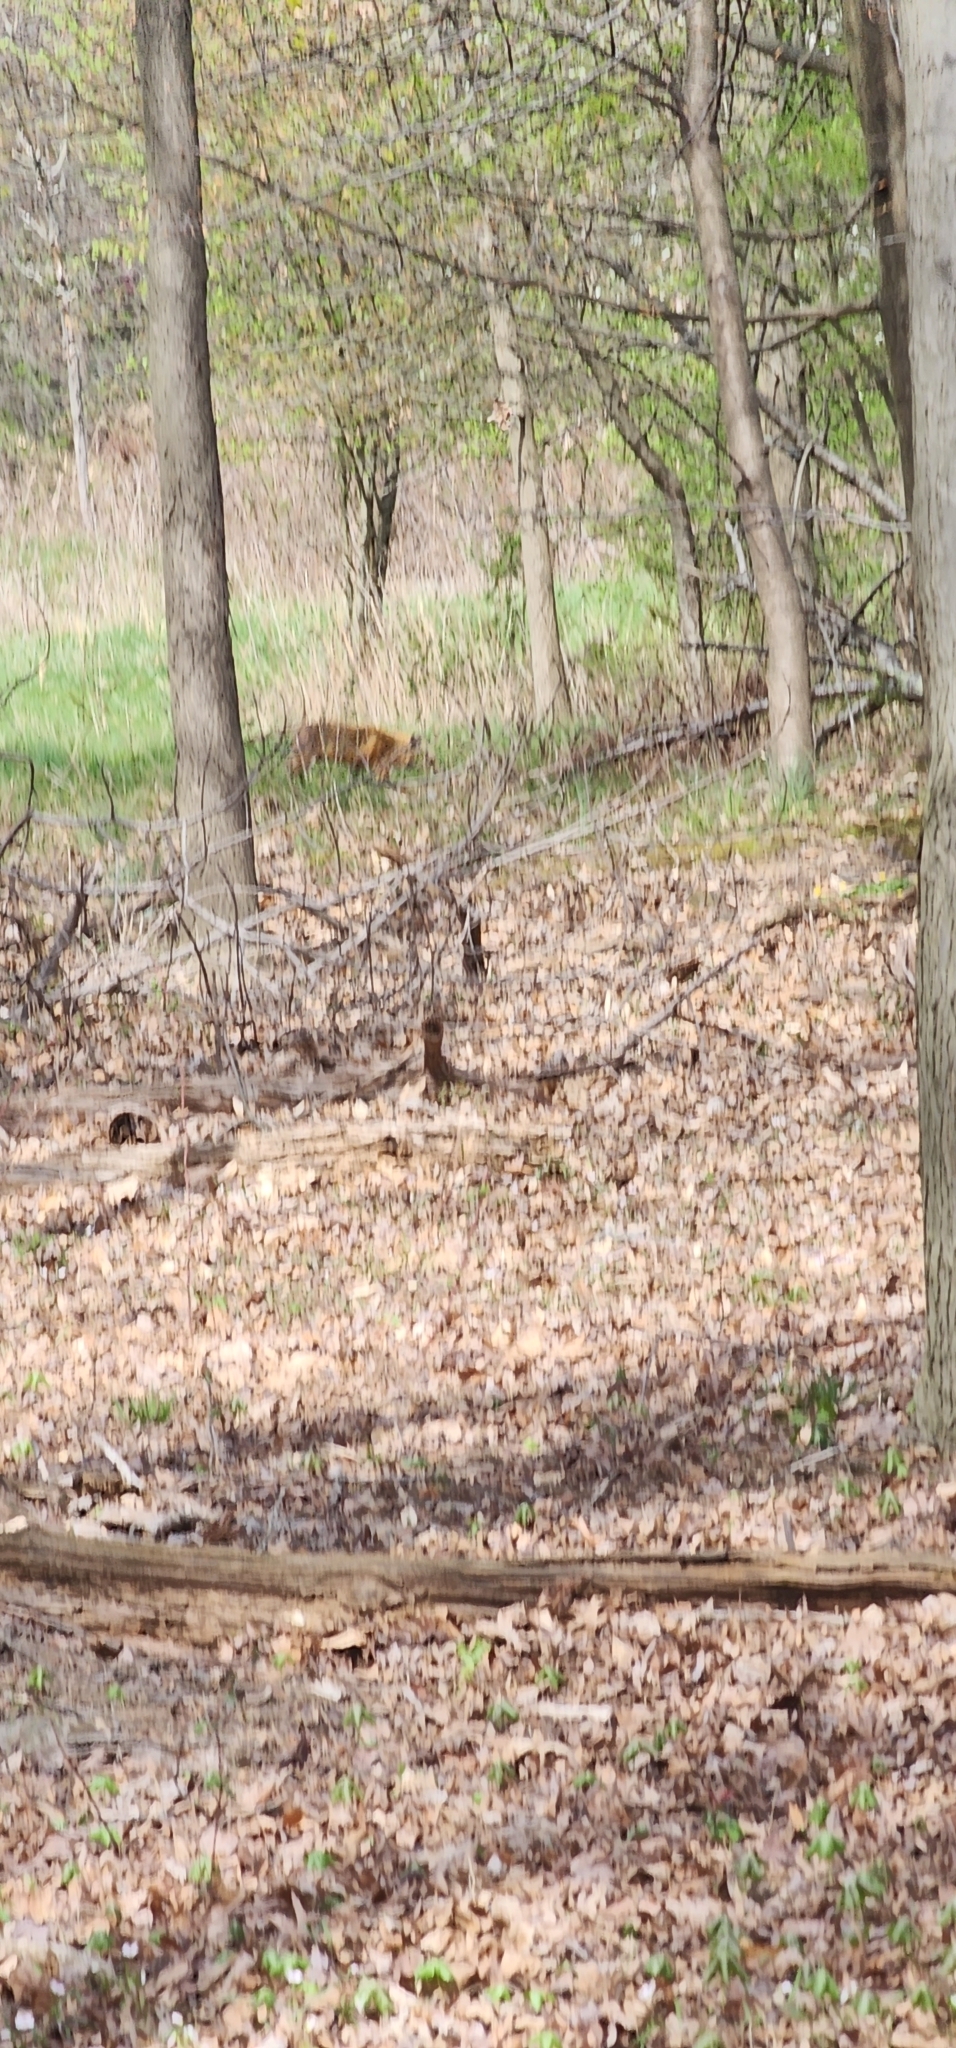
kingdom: Animalia
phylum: Chordata
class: Mammalia
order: Carnivora
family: Canidae
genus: Vulpes
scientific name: Vulpes vulpes
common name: Red fox
